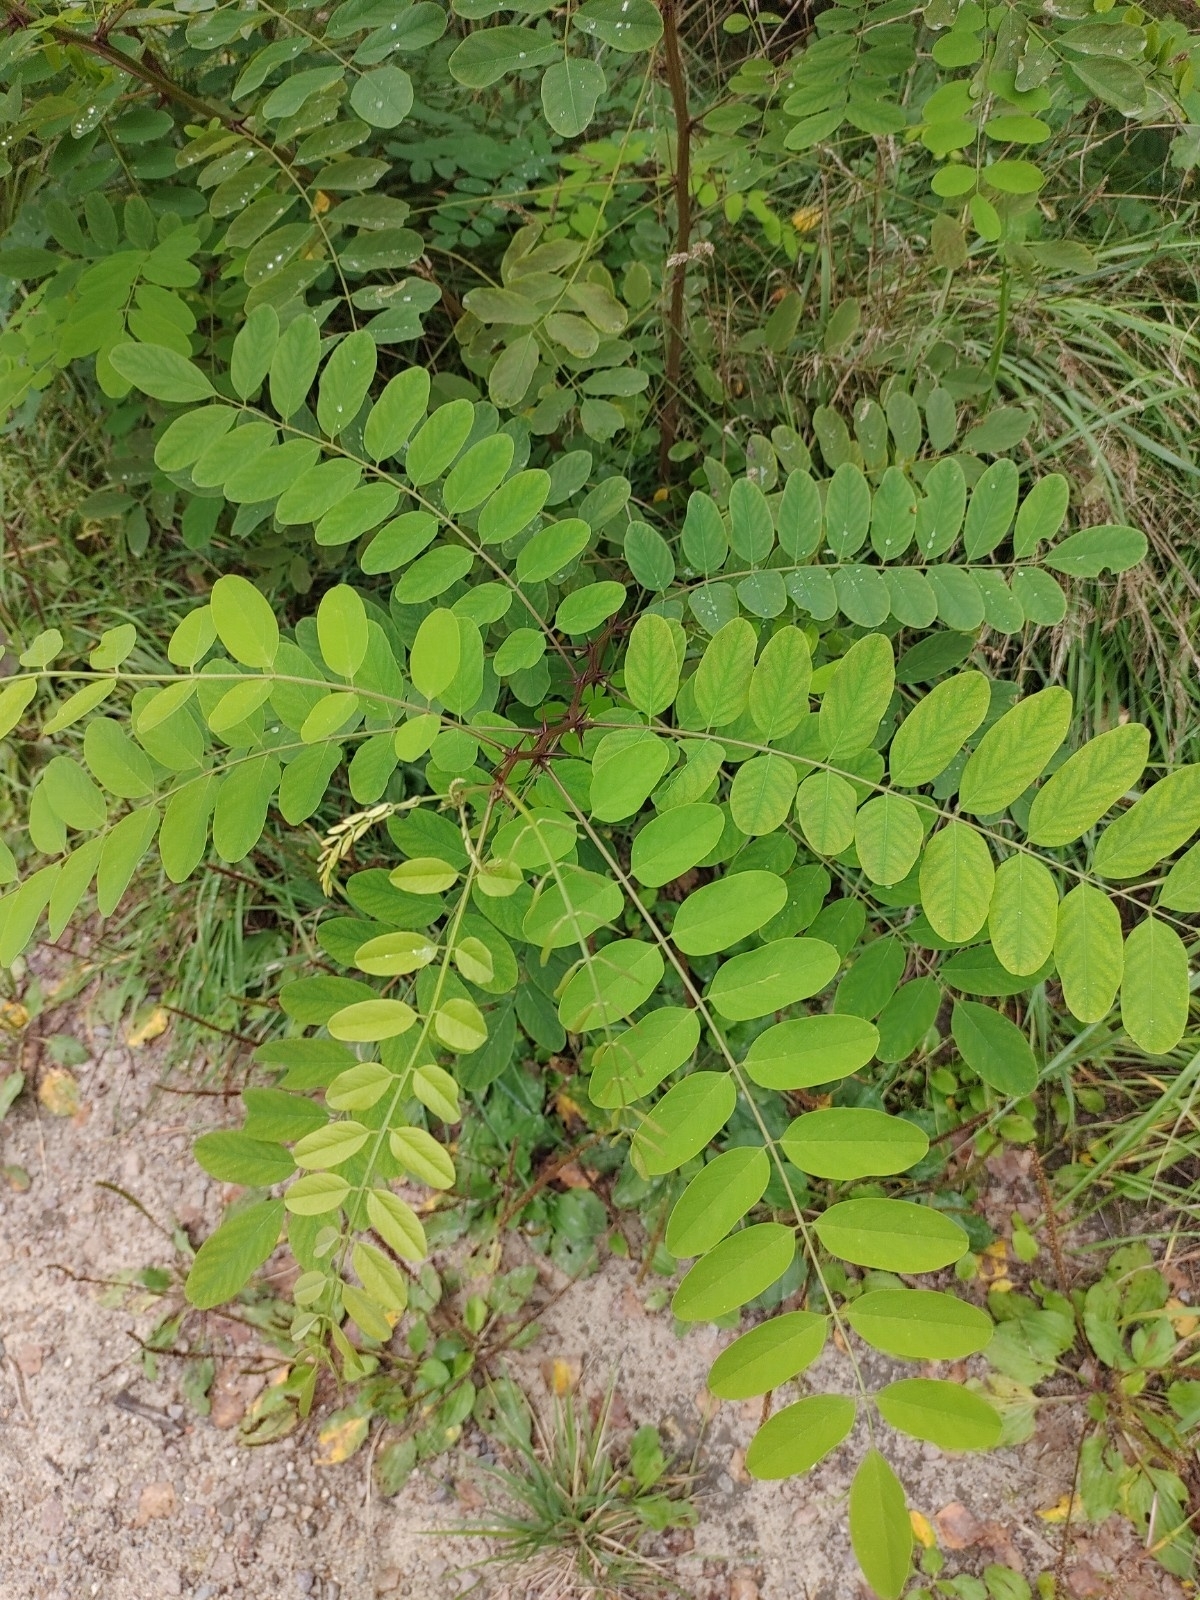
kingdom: Plantae
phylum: Tracheophyta
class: Magnoliopsida
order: Fabales
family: Fabaceae
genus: Robinia
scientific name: Robinia pseudoacacia
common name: Black locust
